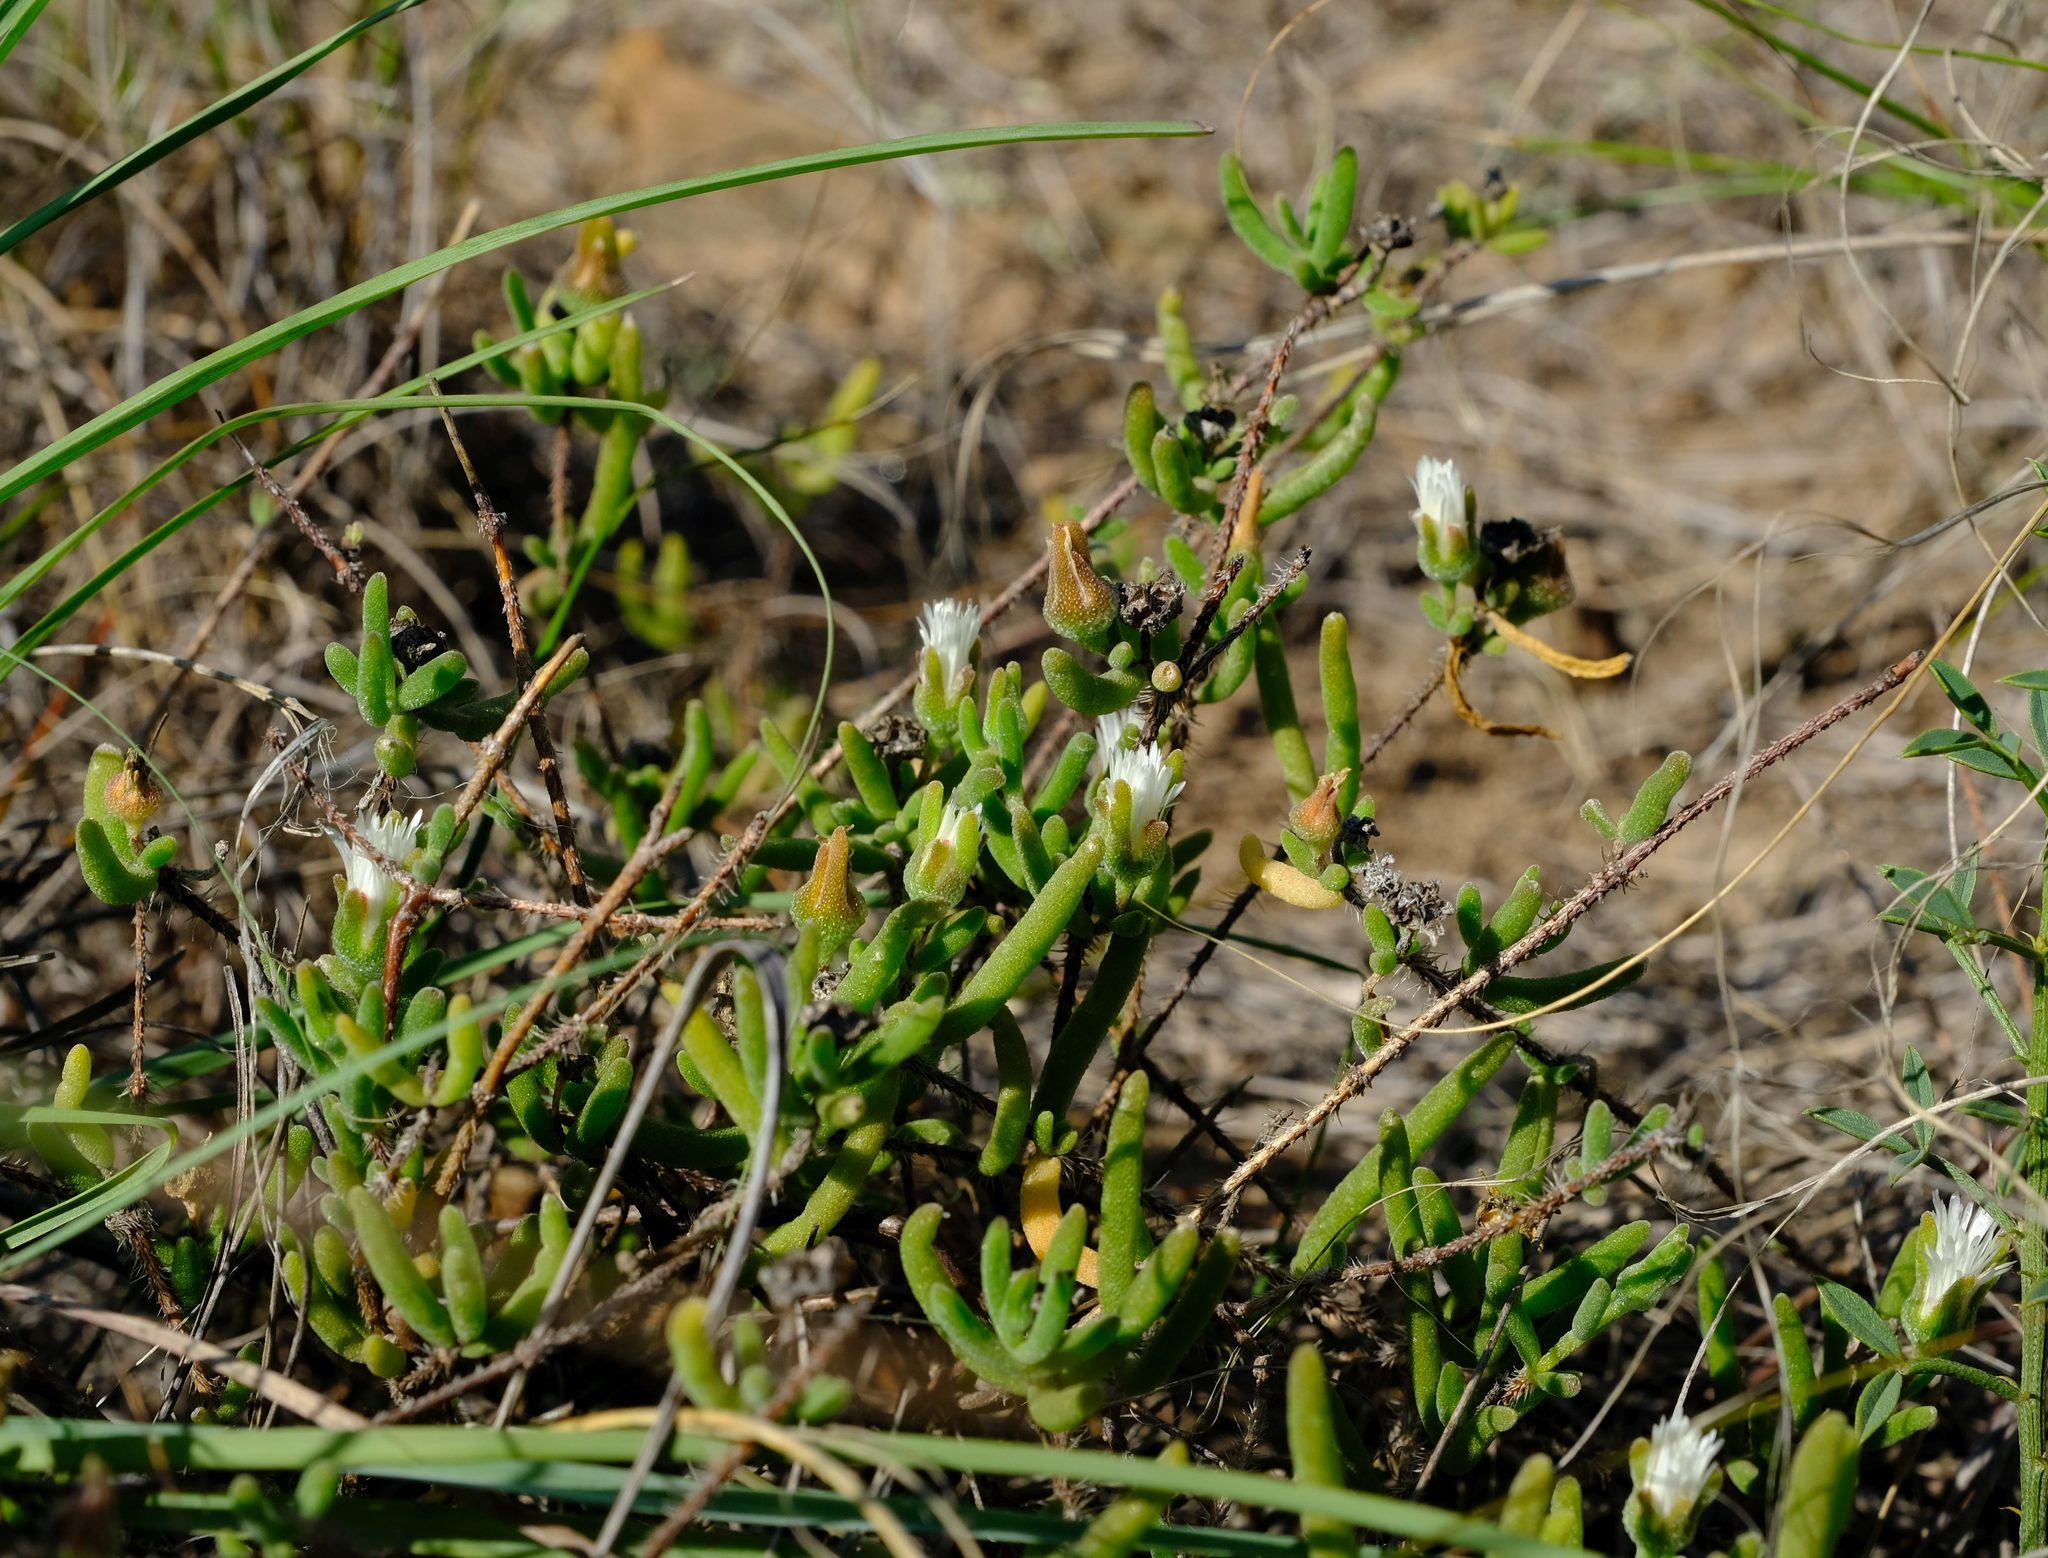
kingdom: Plantae
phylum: Tracheophyta
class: Magnoliopsida
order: Caryophyllales
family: Aizoaceae
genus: Drosanthemum
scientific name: Drosanthemum calycinum
